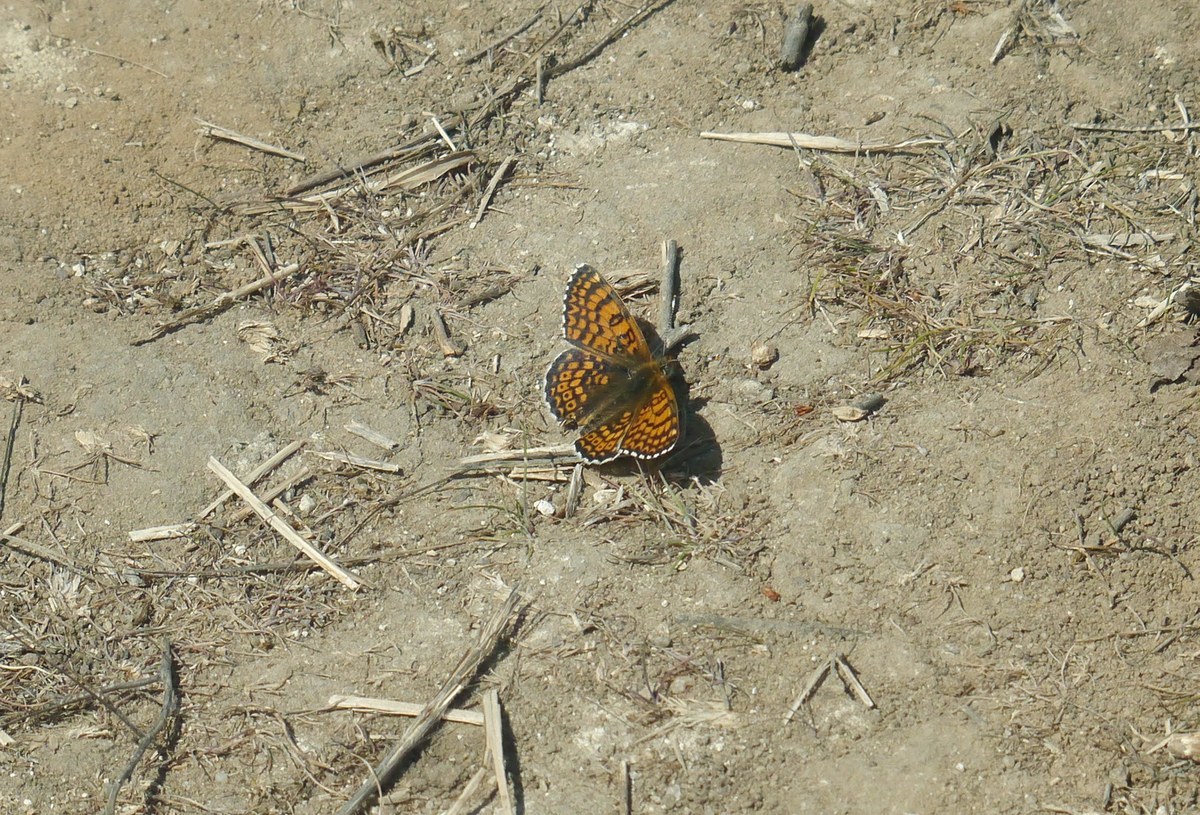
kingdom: Animalia
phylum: Arthropoda
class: Insecta
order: Lepidoptera
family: Nymphalidae
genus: Melitaea
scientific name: Melitaea cinxia
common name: Glanville fritillary
